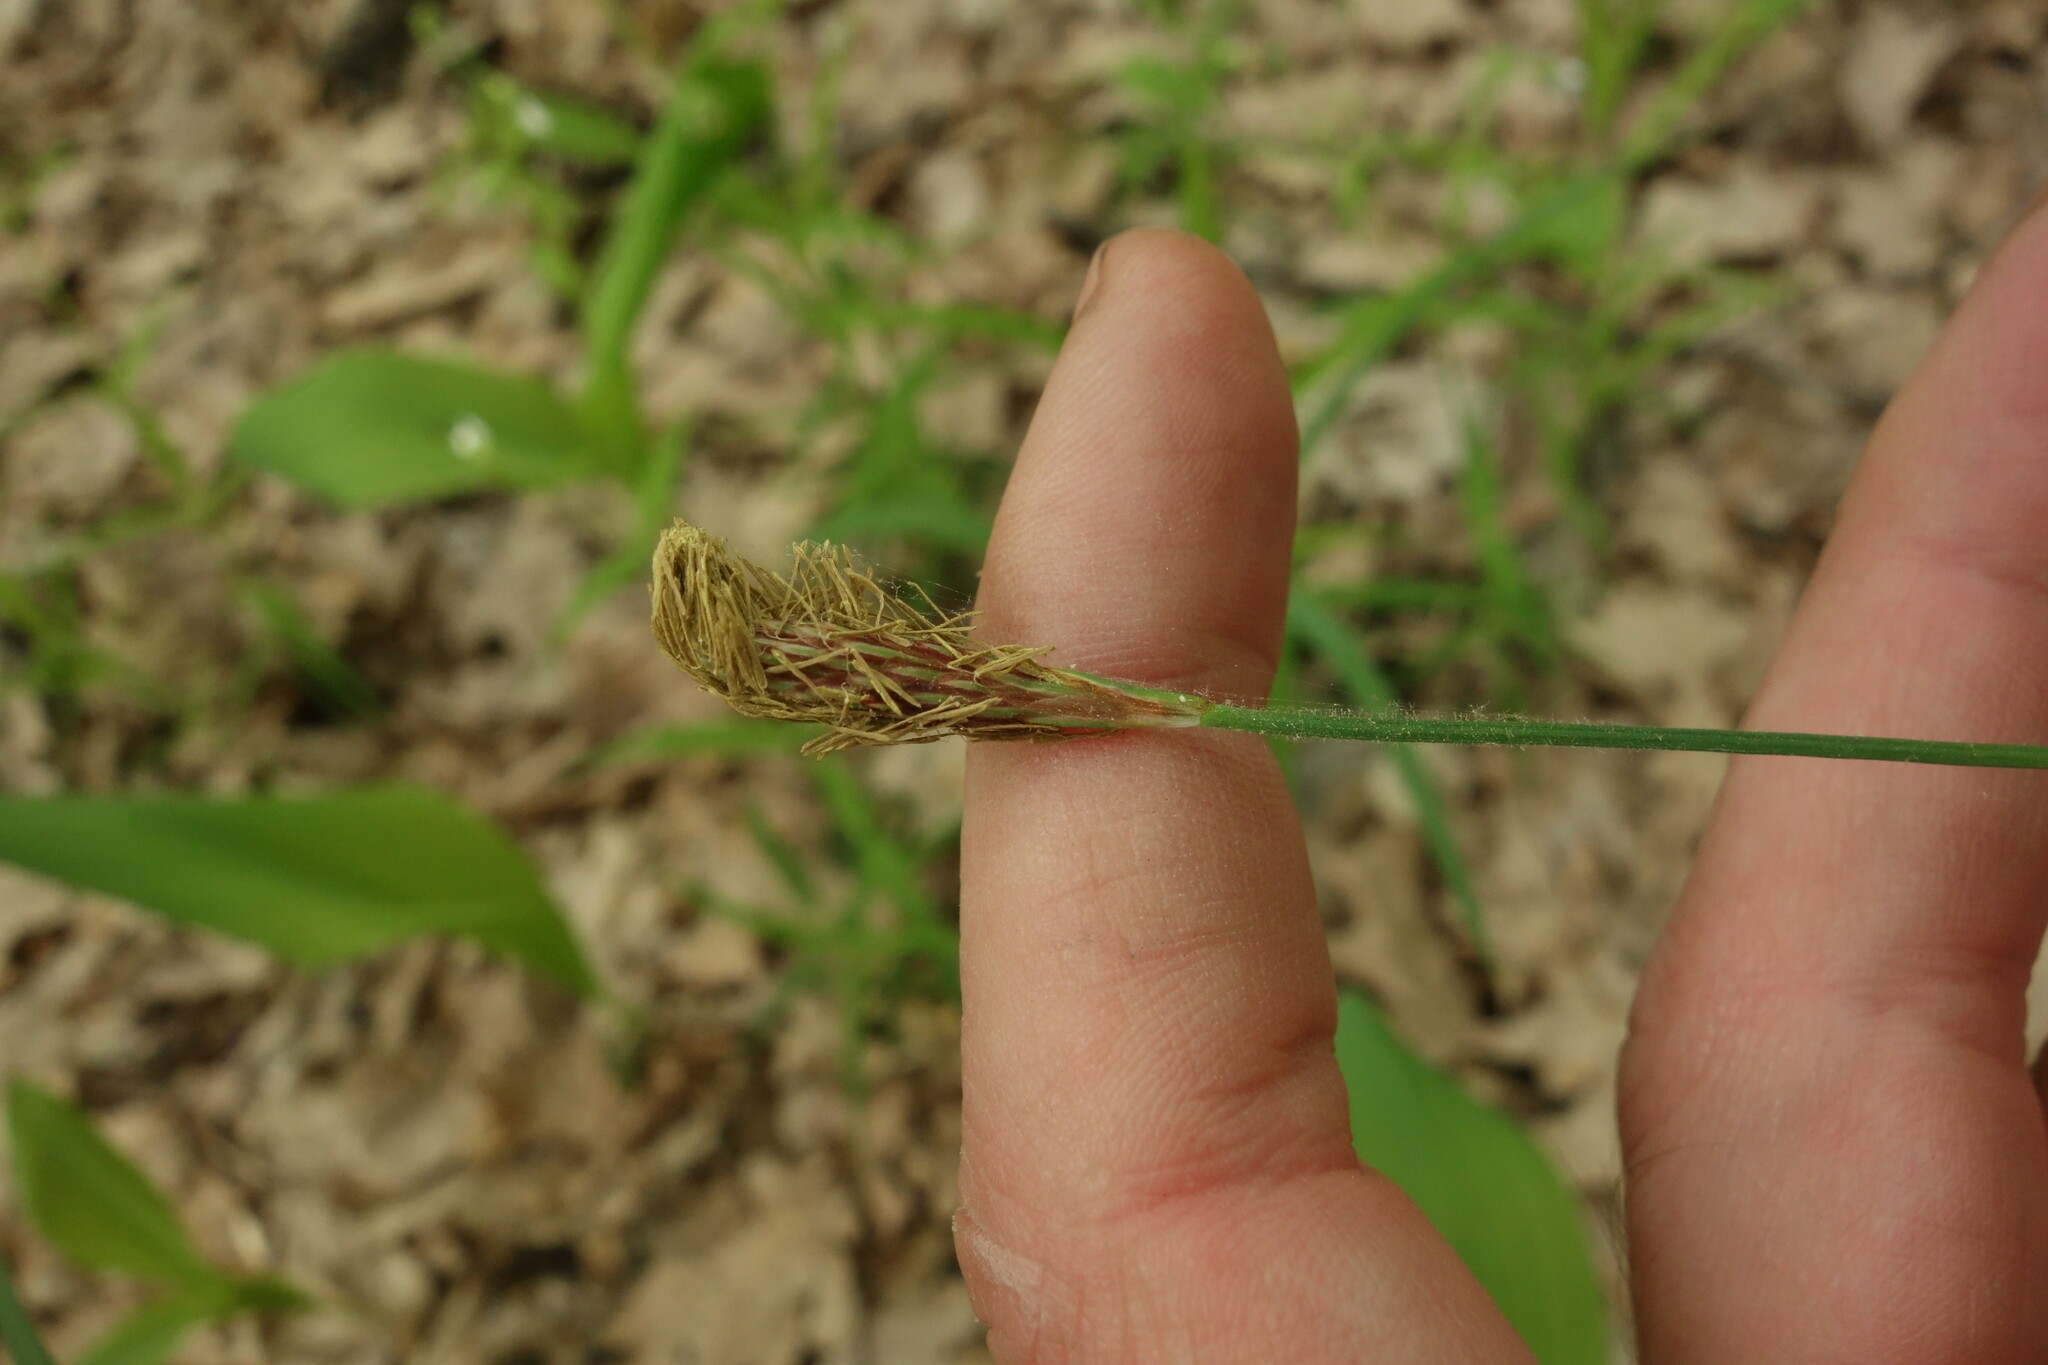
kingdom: Plantae
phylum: Tracheophyta
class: Liliopsida
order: Poales
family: Cyperaceae
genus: Carex
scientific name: Carex pilosa
